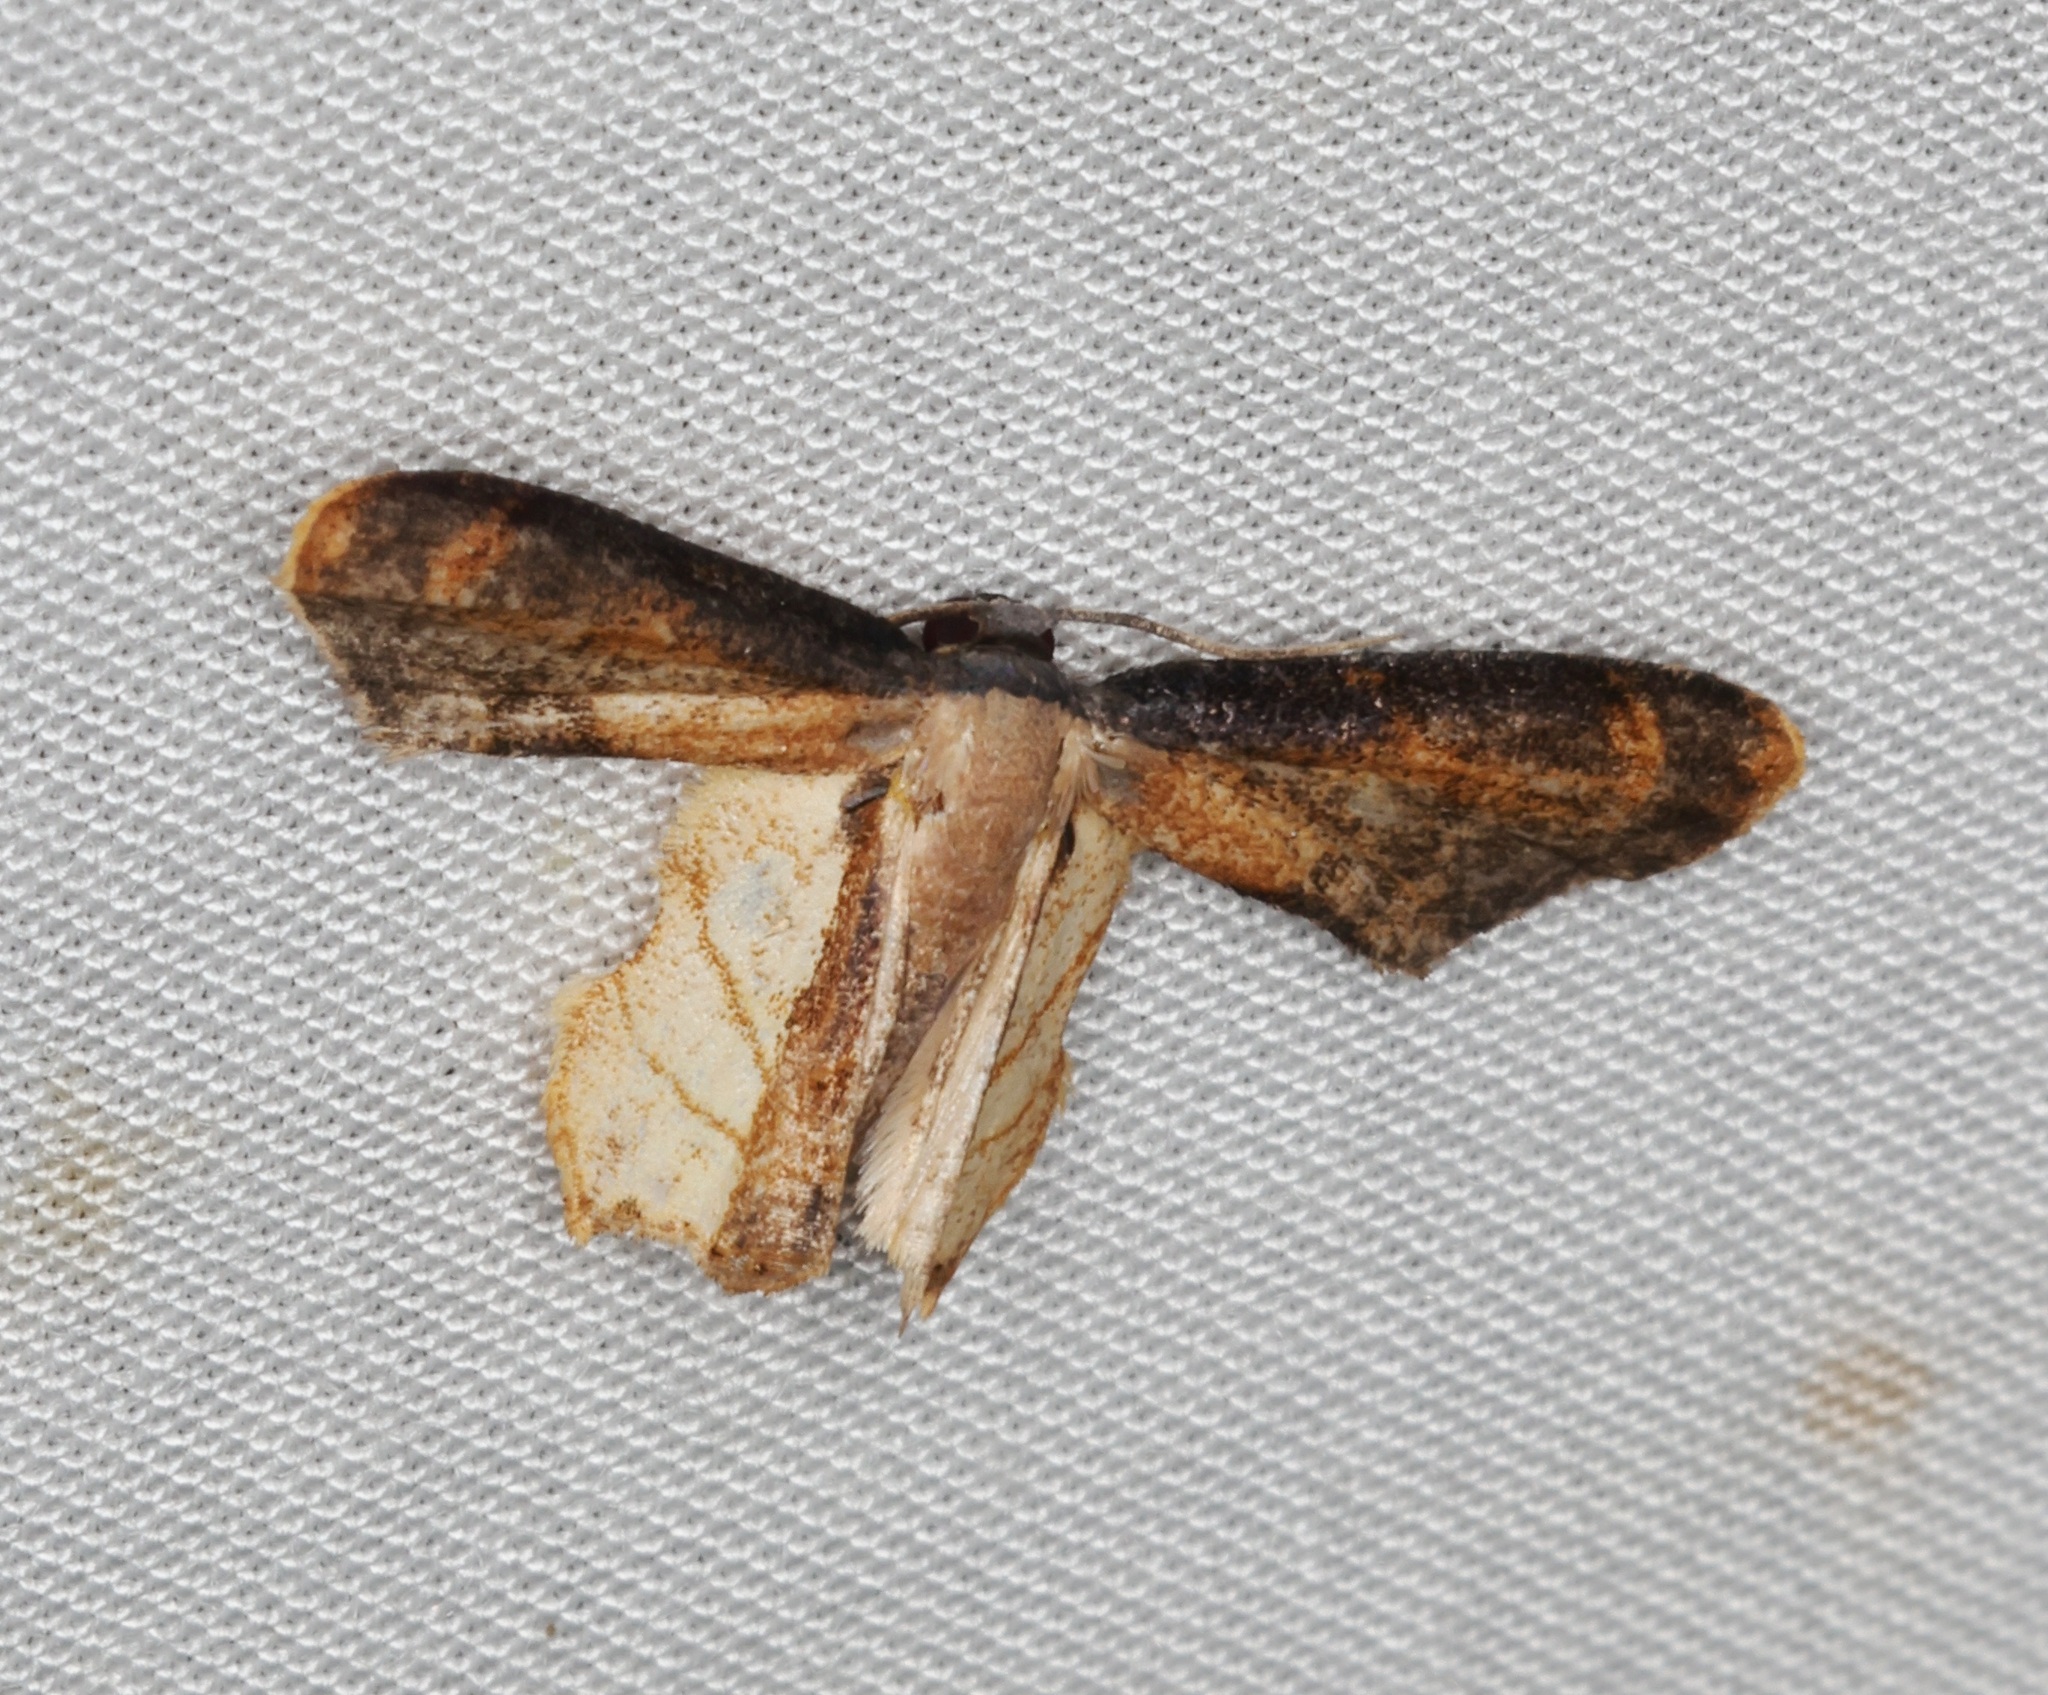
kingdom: Animalia
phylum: Arthropoda
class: Insecta
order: Lepidoptera
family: Uraniidae
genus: Warreniplema
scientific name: Warreniplema fumicosta
